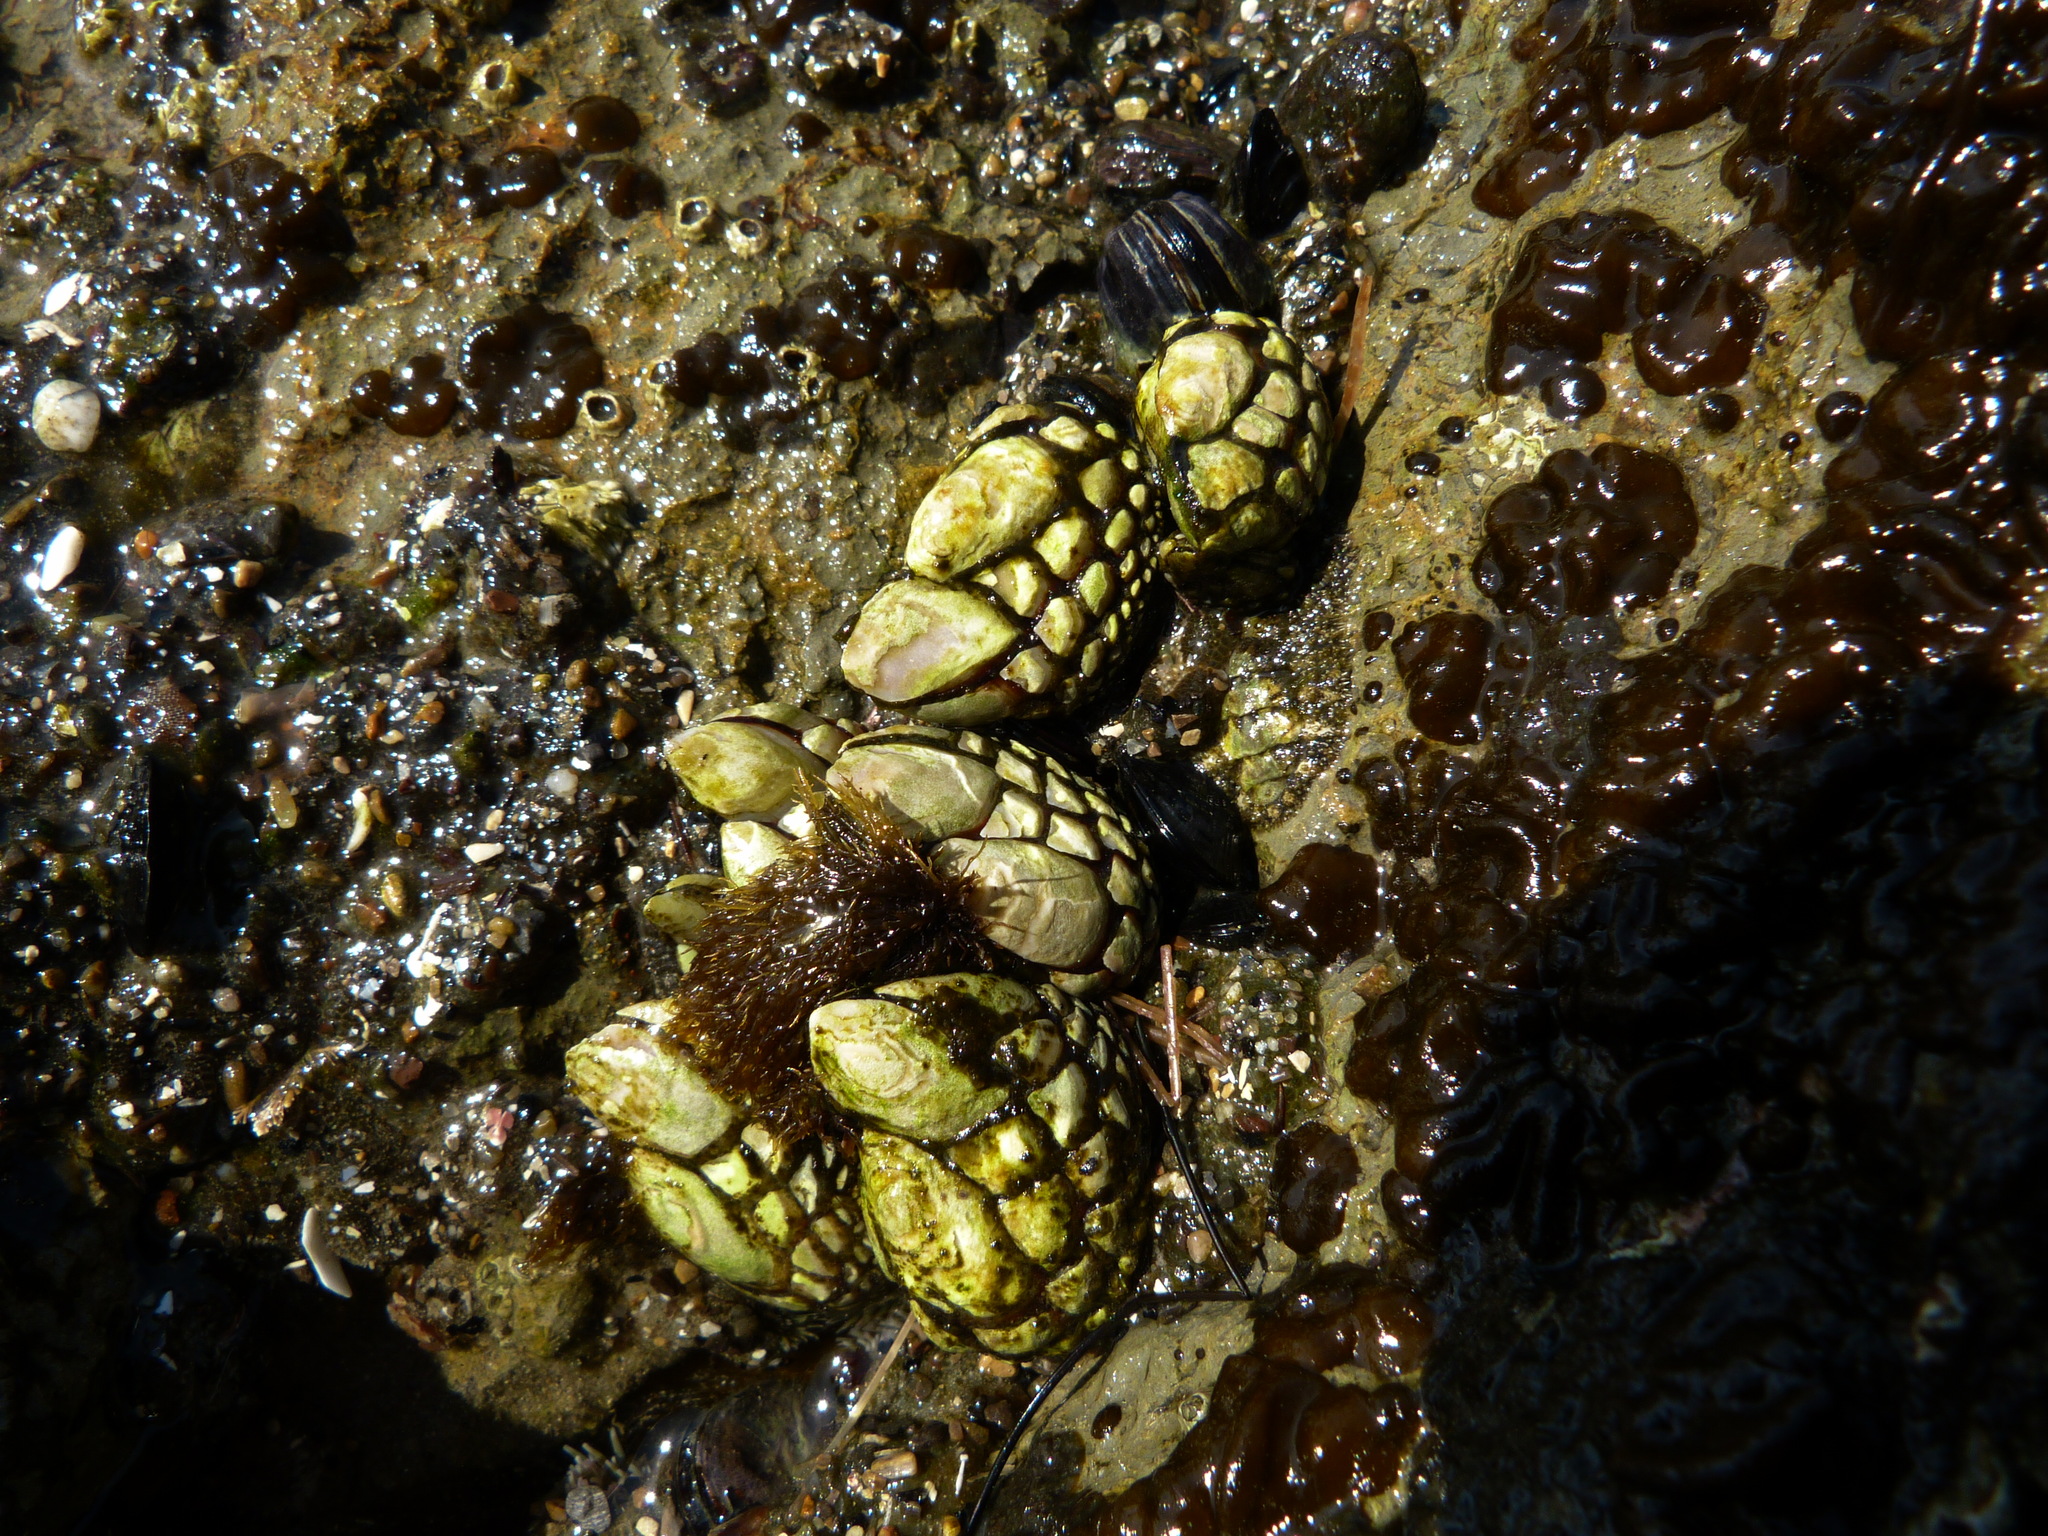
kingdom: Animalia
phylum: Arthropoda
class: Maxillopoda
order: Pedunculata
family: Pollicipedidae
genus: Pollicipes
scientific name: Pollicipes polymerus
